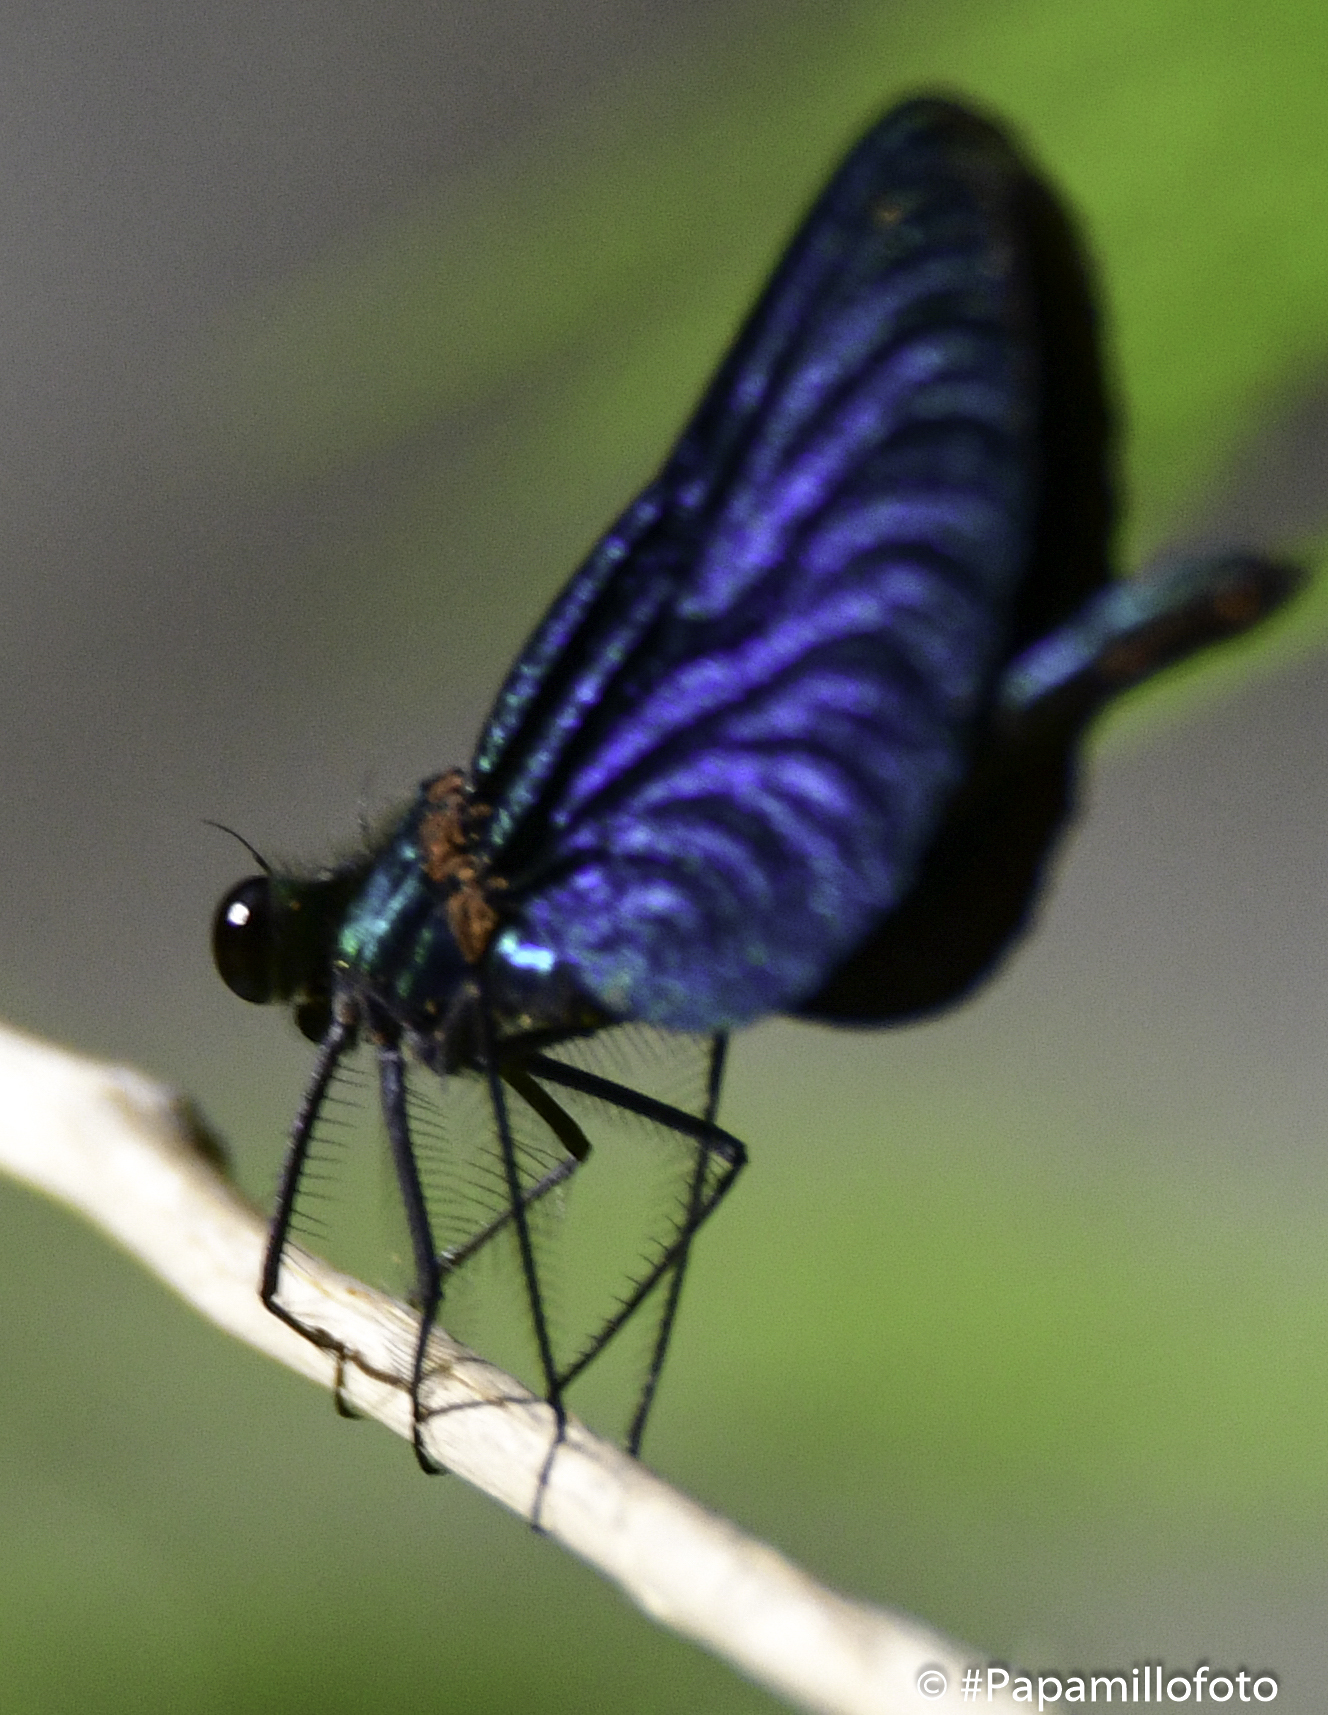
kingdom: Animalia
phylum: Arthropoda
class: Insecta
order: Odonata
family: Calopterygidae
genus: Calopteryx
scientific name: Calopteryx virgo
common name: Beautiful demoiselle
